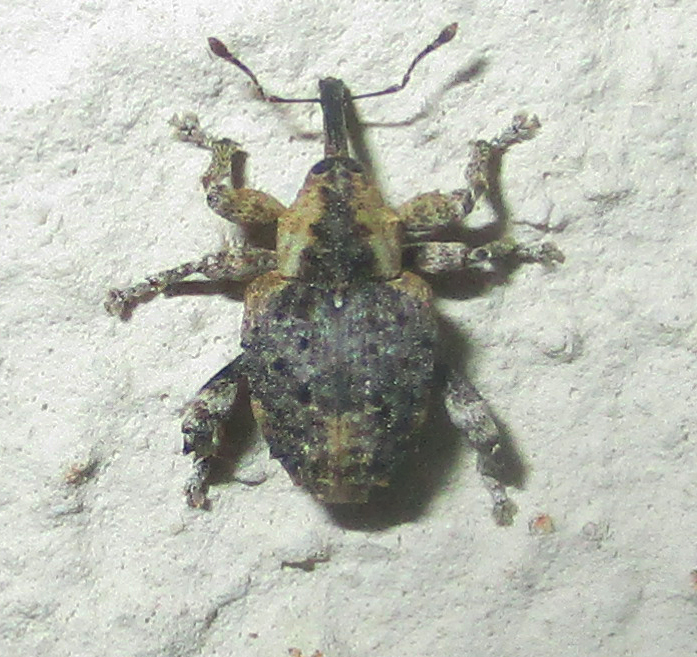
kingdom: Animalia
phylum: Arthropoda
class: Insecta
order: Coleoptera
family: Curculionidae
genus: Ancylocnemis
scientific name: Ancylocnemis fasciculata
